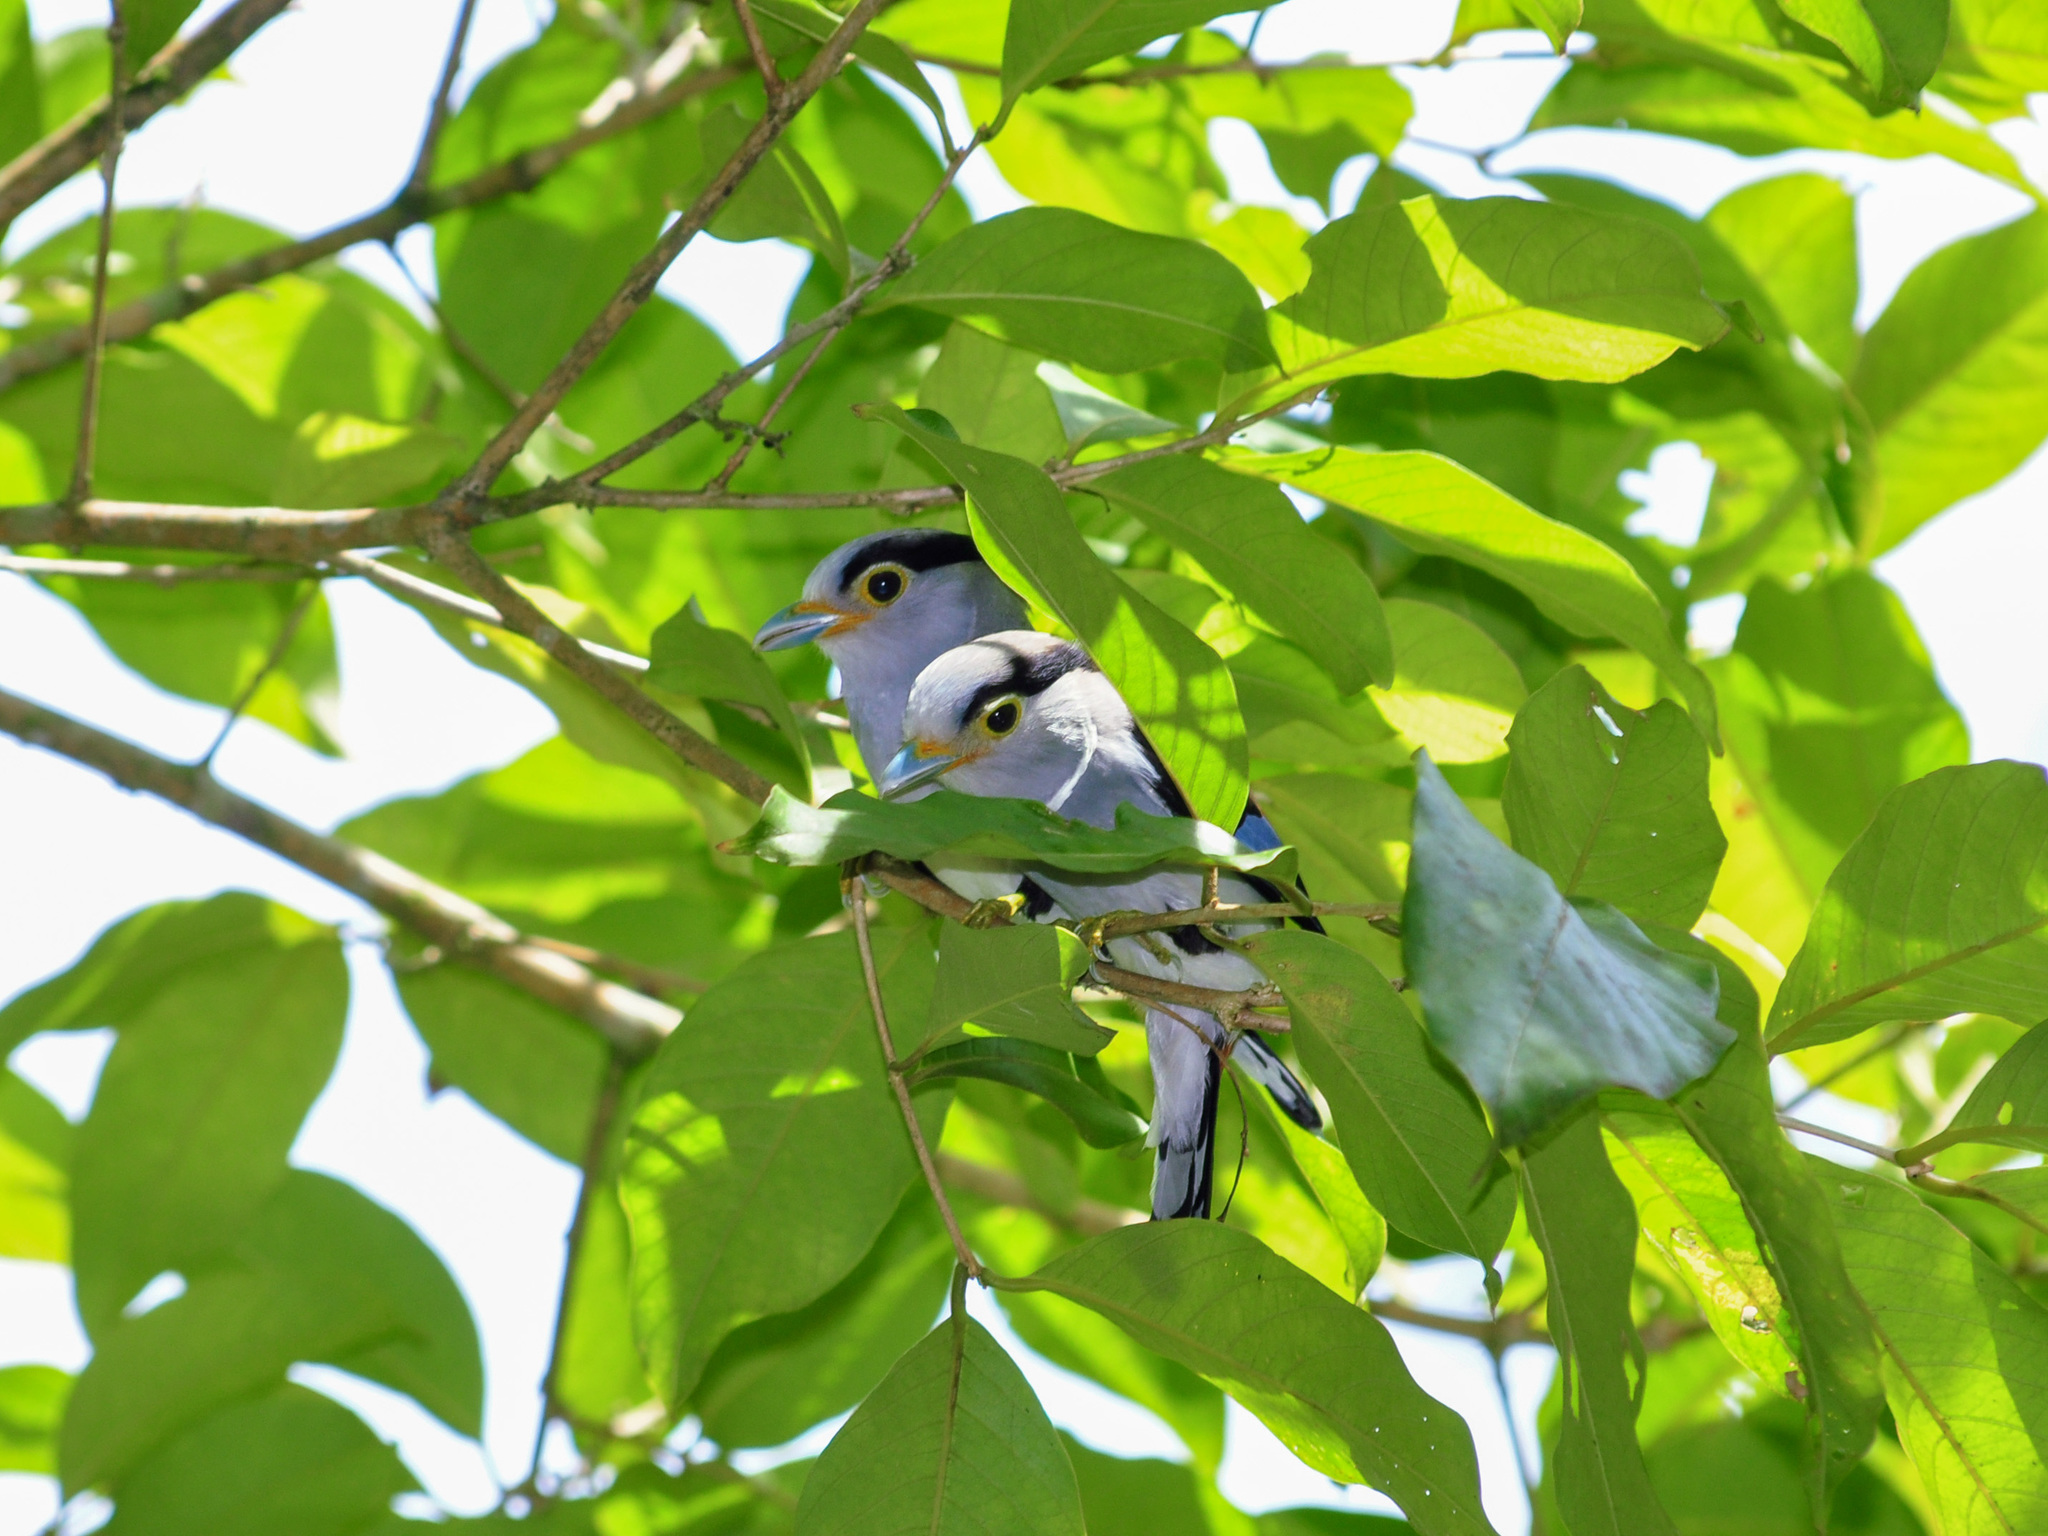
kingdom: Animalia
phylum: Chordata
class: Aves
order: Passeriformes
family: Eurylaimidae
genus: Serilophus
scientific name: Serilophus lunatus
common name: Silver-breasted broadbill
